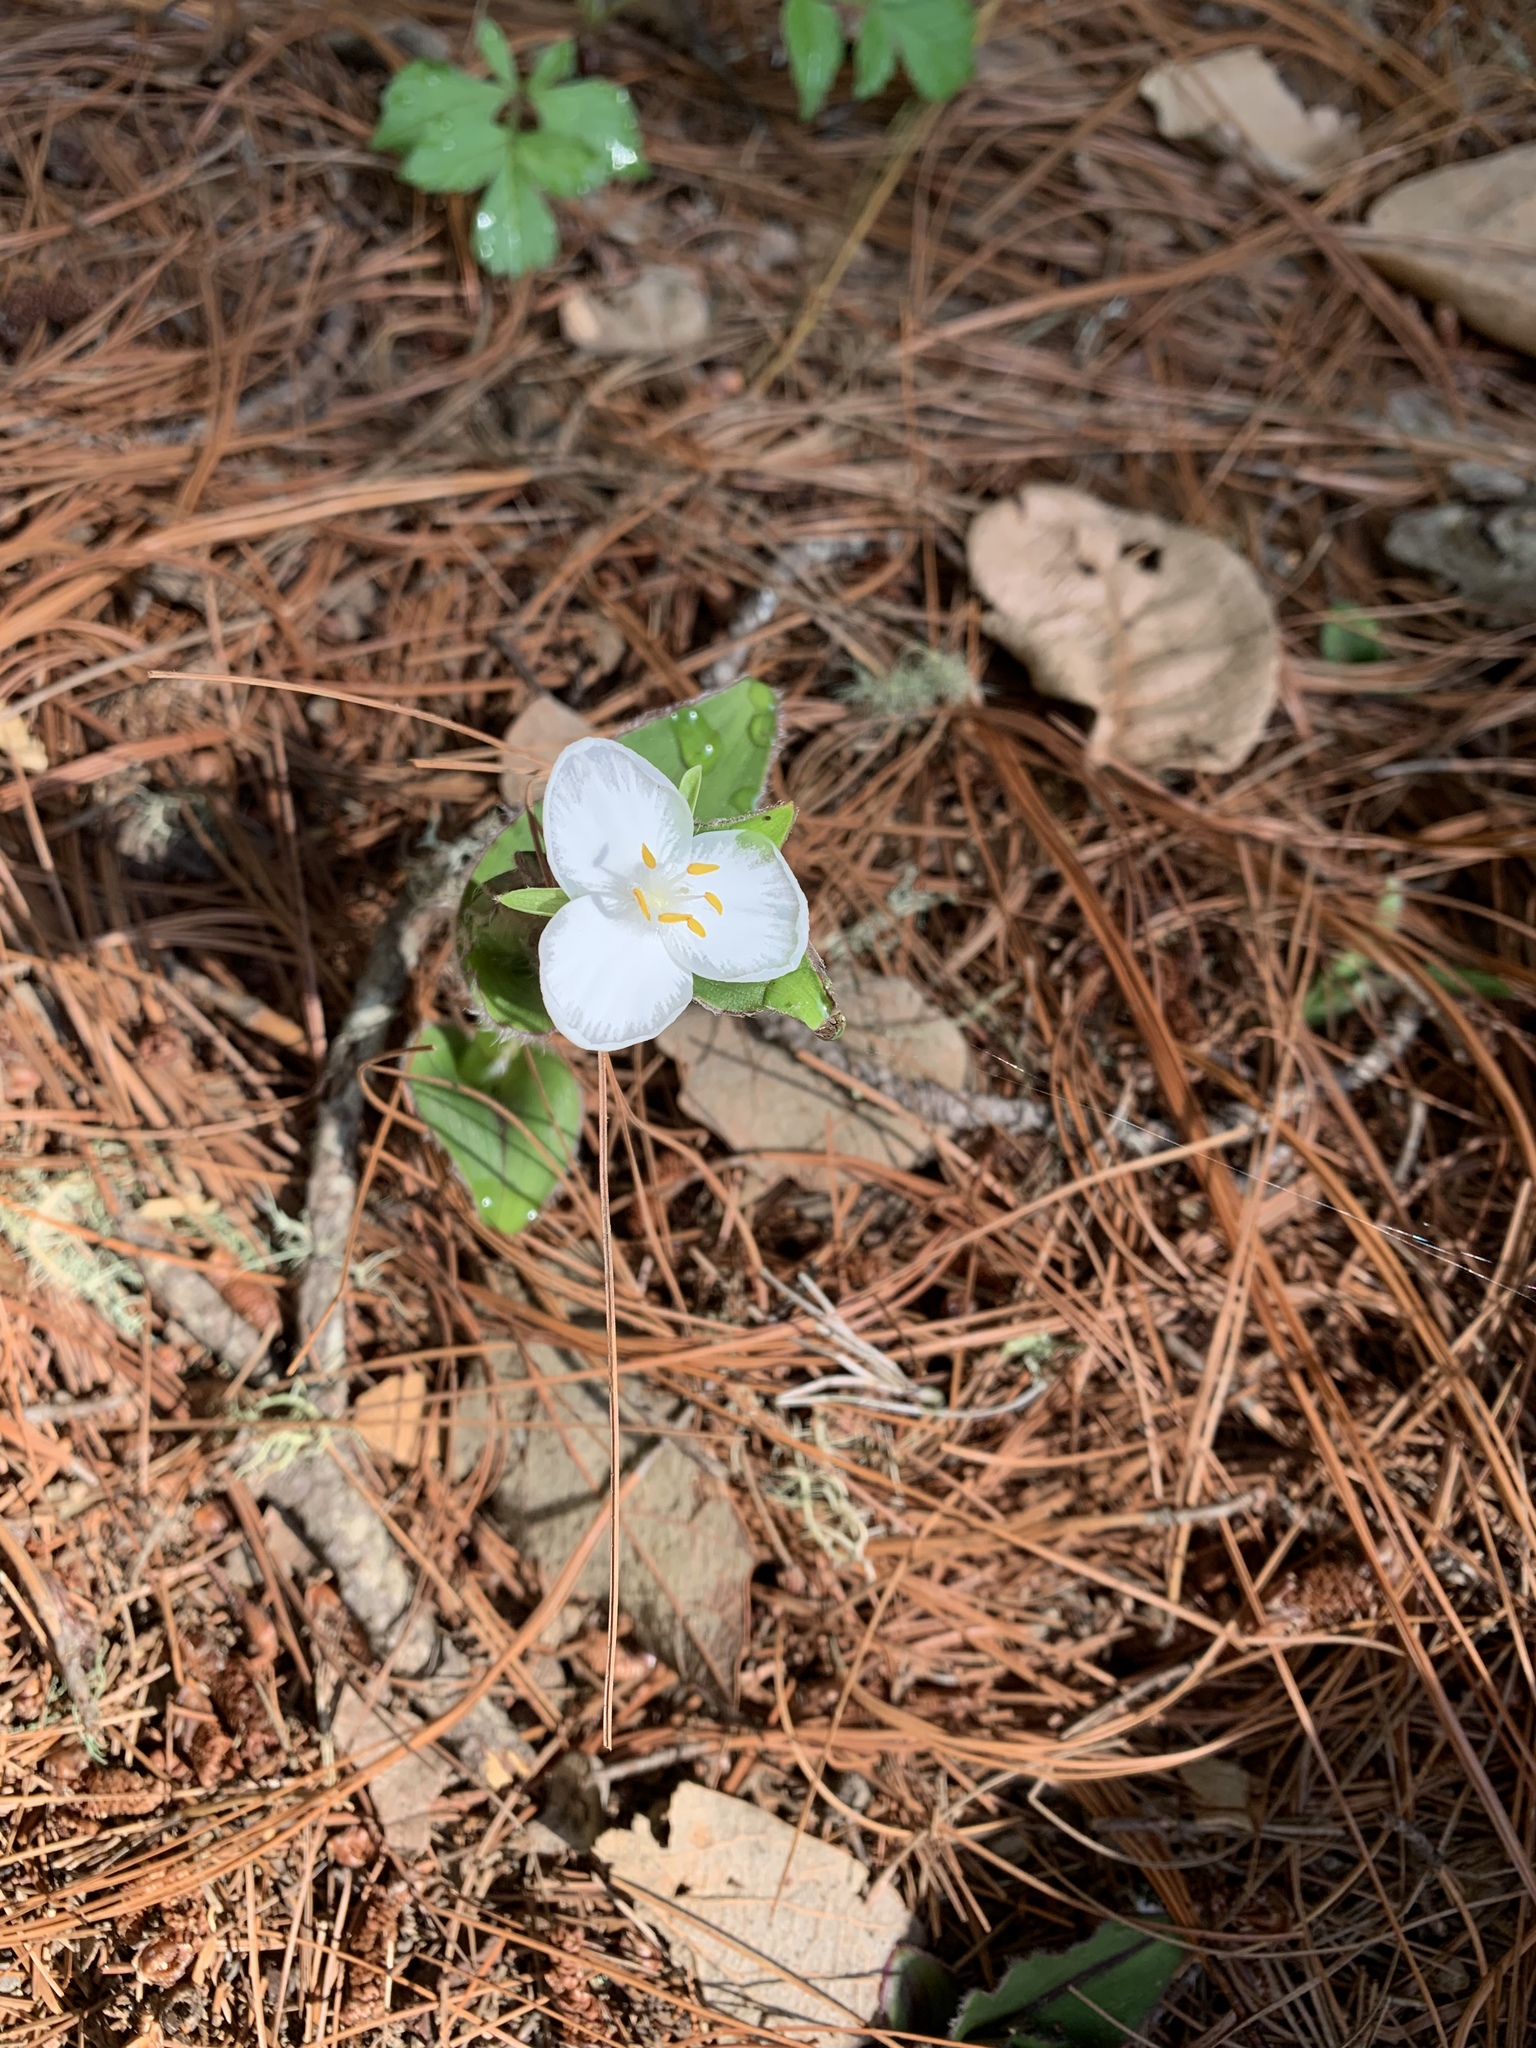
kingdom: Plantae
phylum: Tracheophyta
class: Liliopsida
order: Commelinales
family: Commelinaceae
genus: Matudanthus
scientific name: Matudanthus nanus
